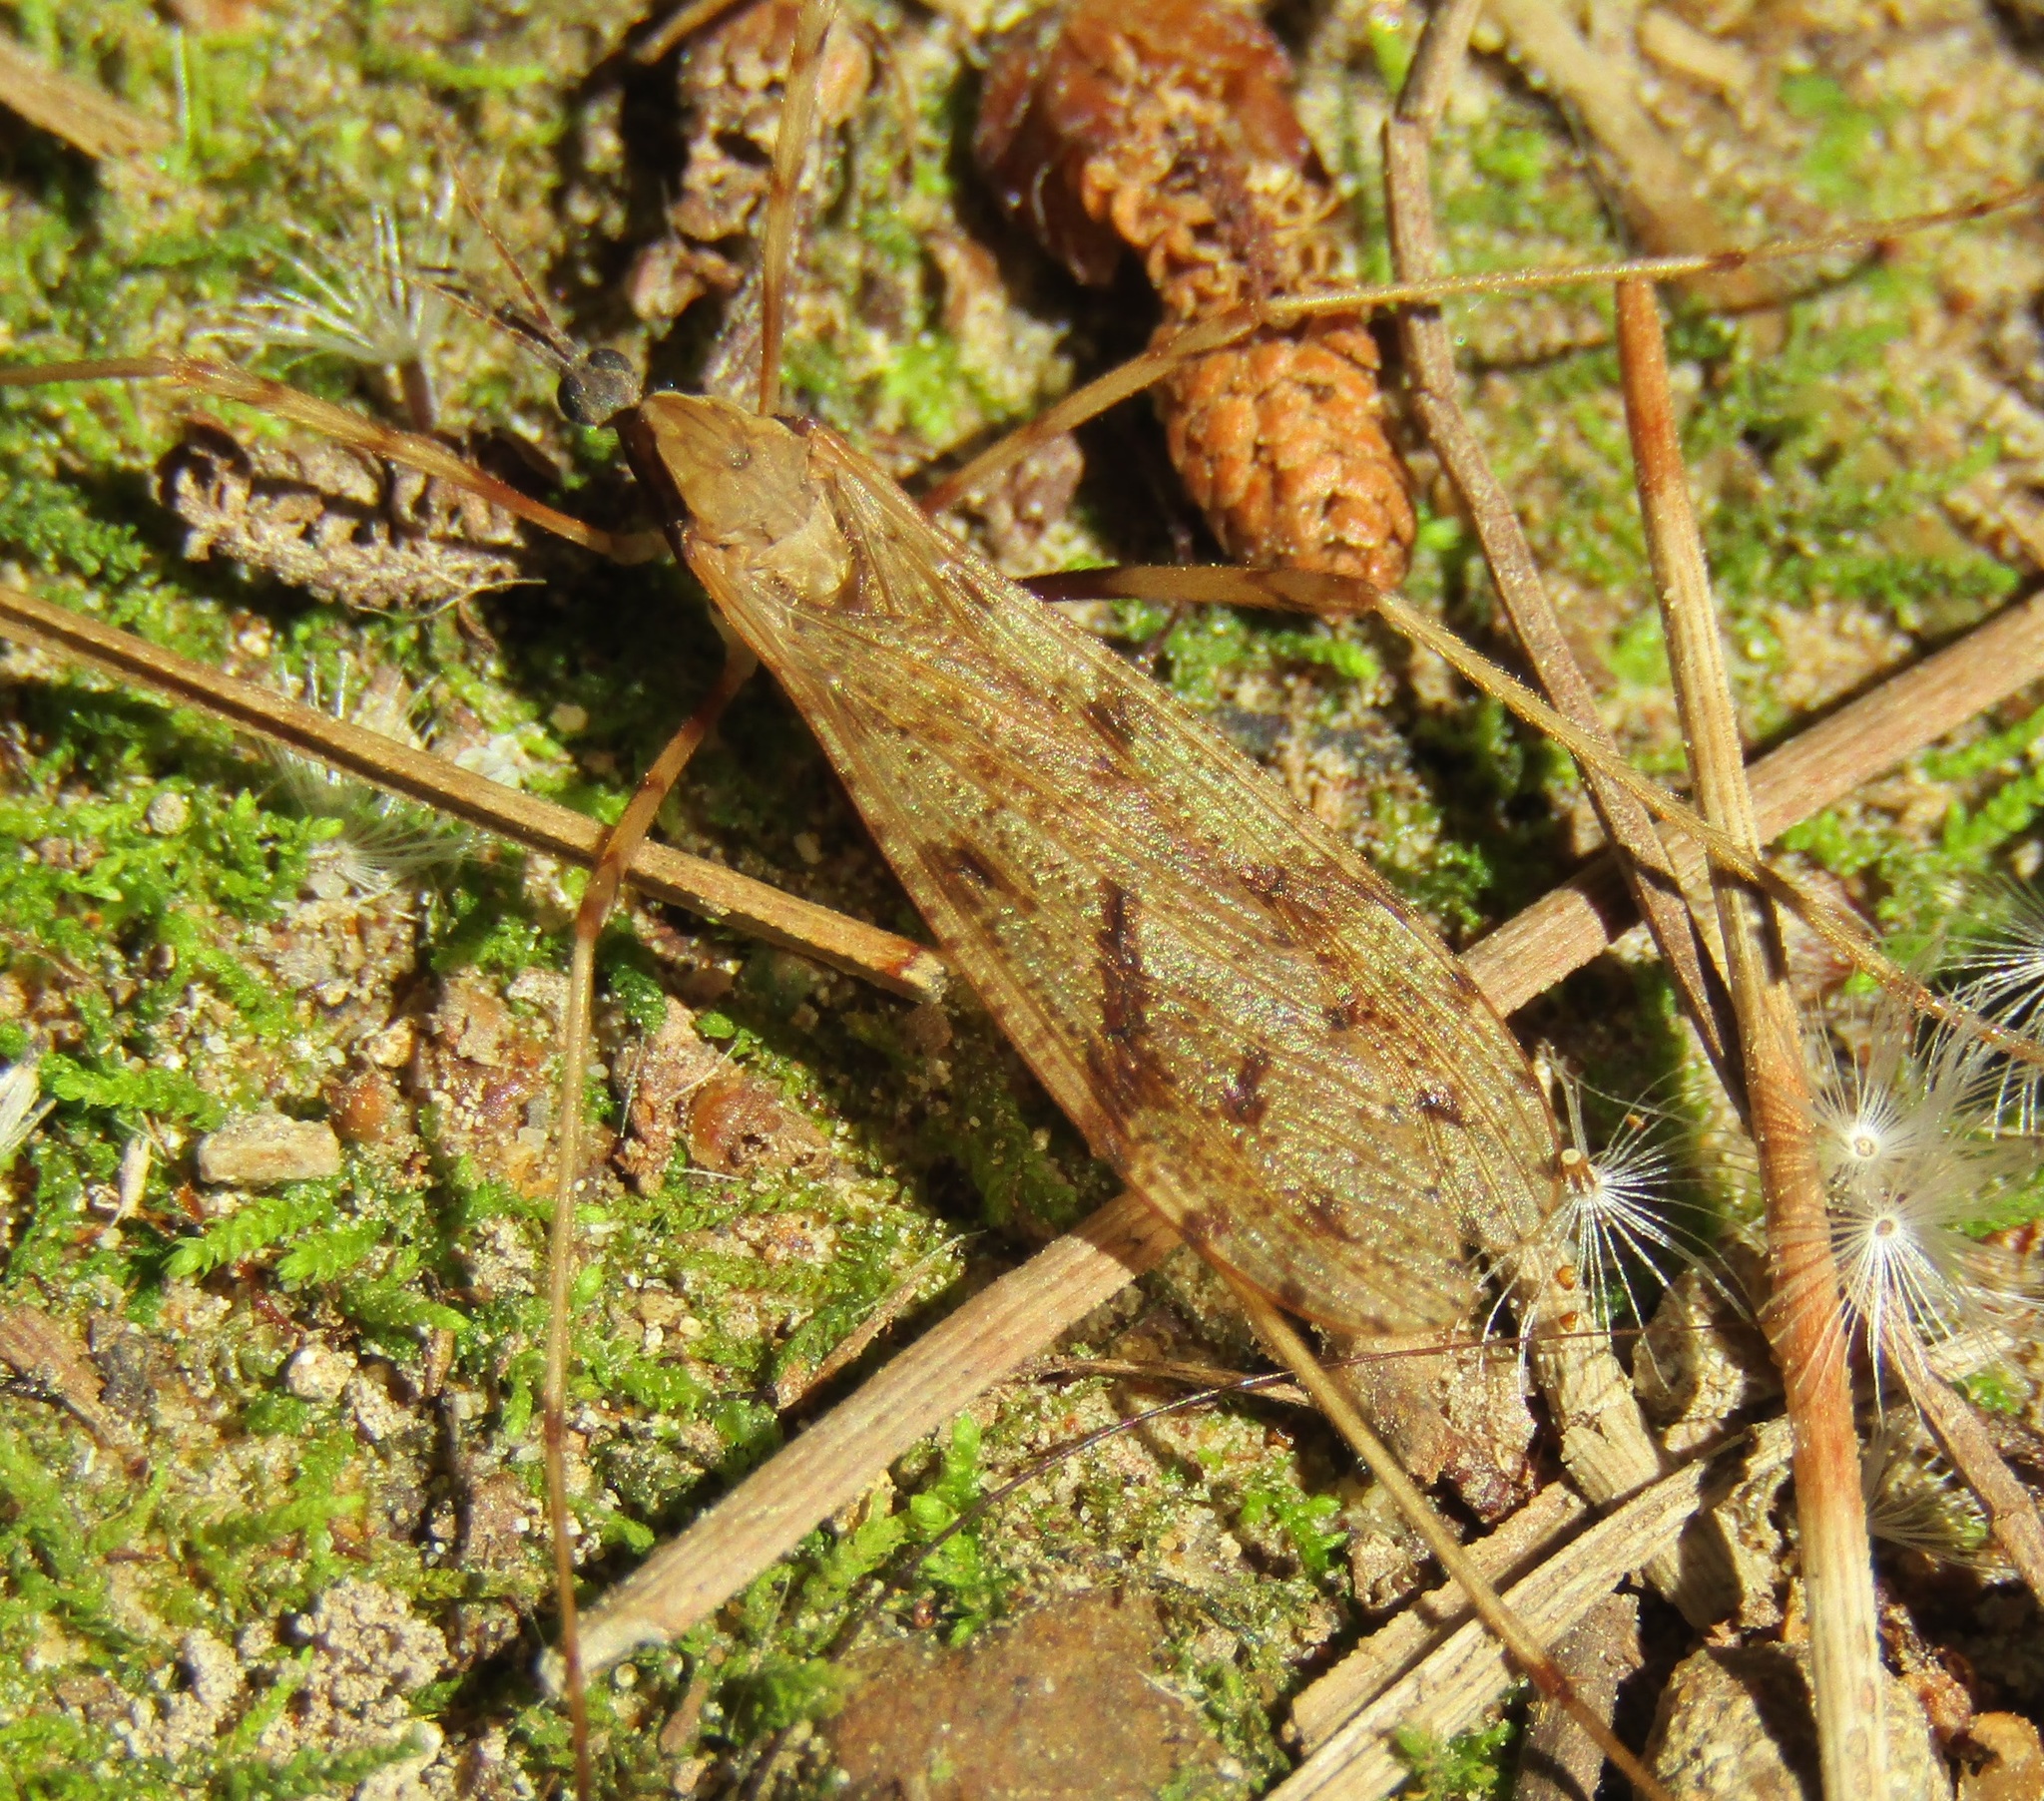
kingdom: Animalia
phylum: Arthropoda
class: Insecta
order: Diptera
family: Limoniidae
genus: Rhamphophila
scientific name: Rhamphophila sinistra
